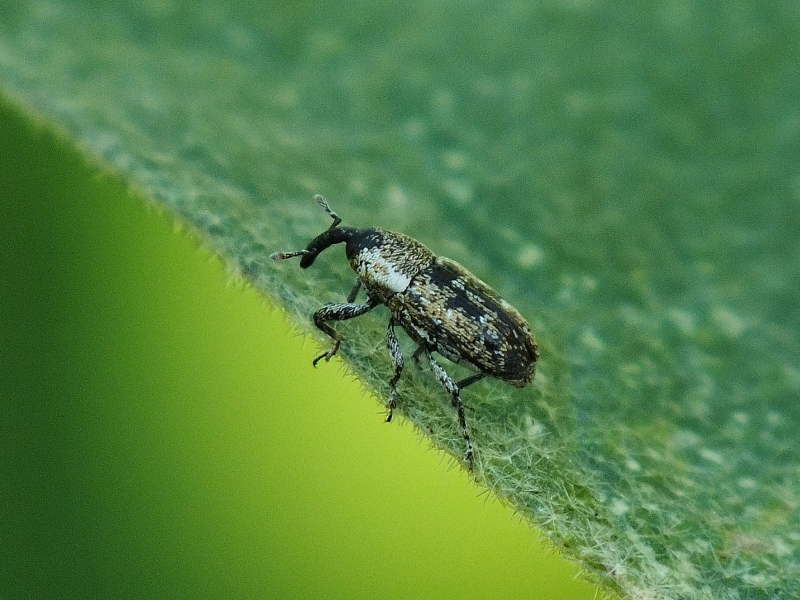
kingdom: Animalia
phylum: Arthropoda
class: Insecta
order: Coleoptera
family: Curculionidae
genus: Cosmobaris
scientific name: Cosmobaris scolopacea
